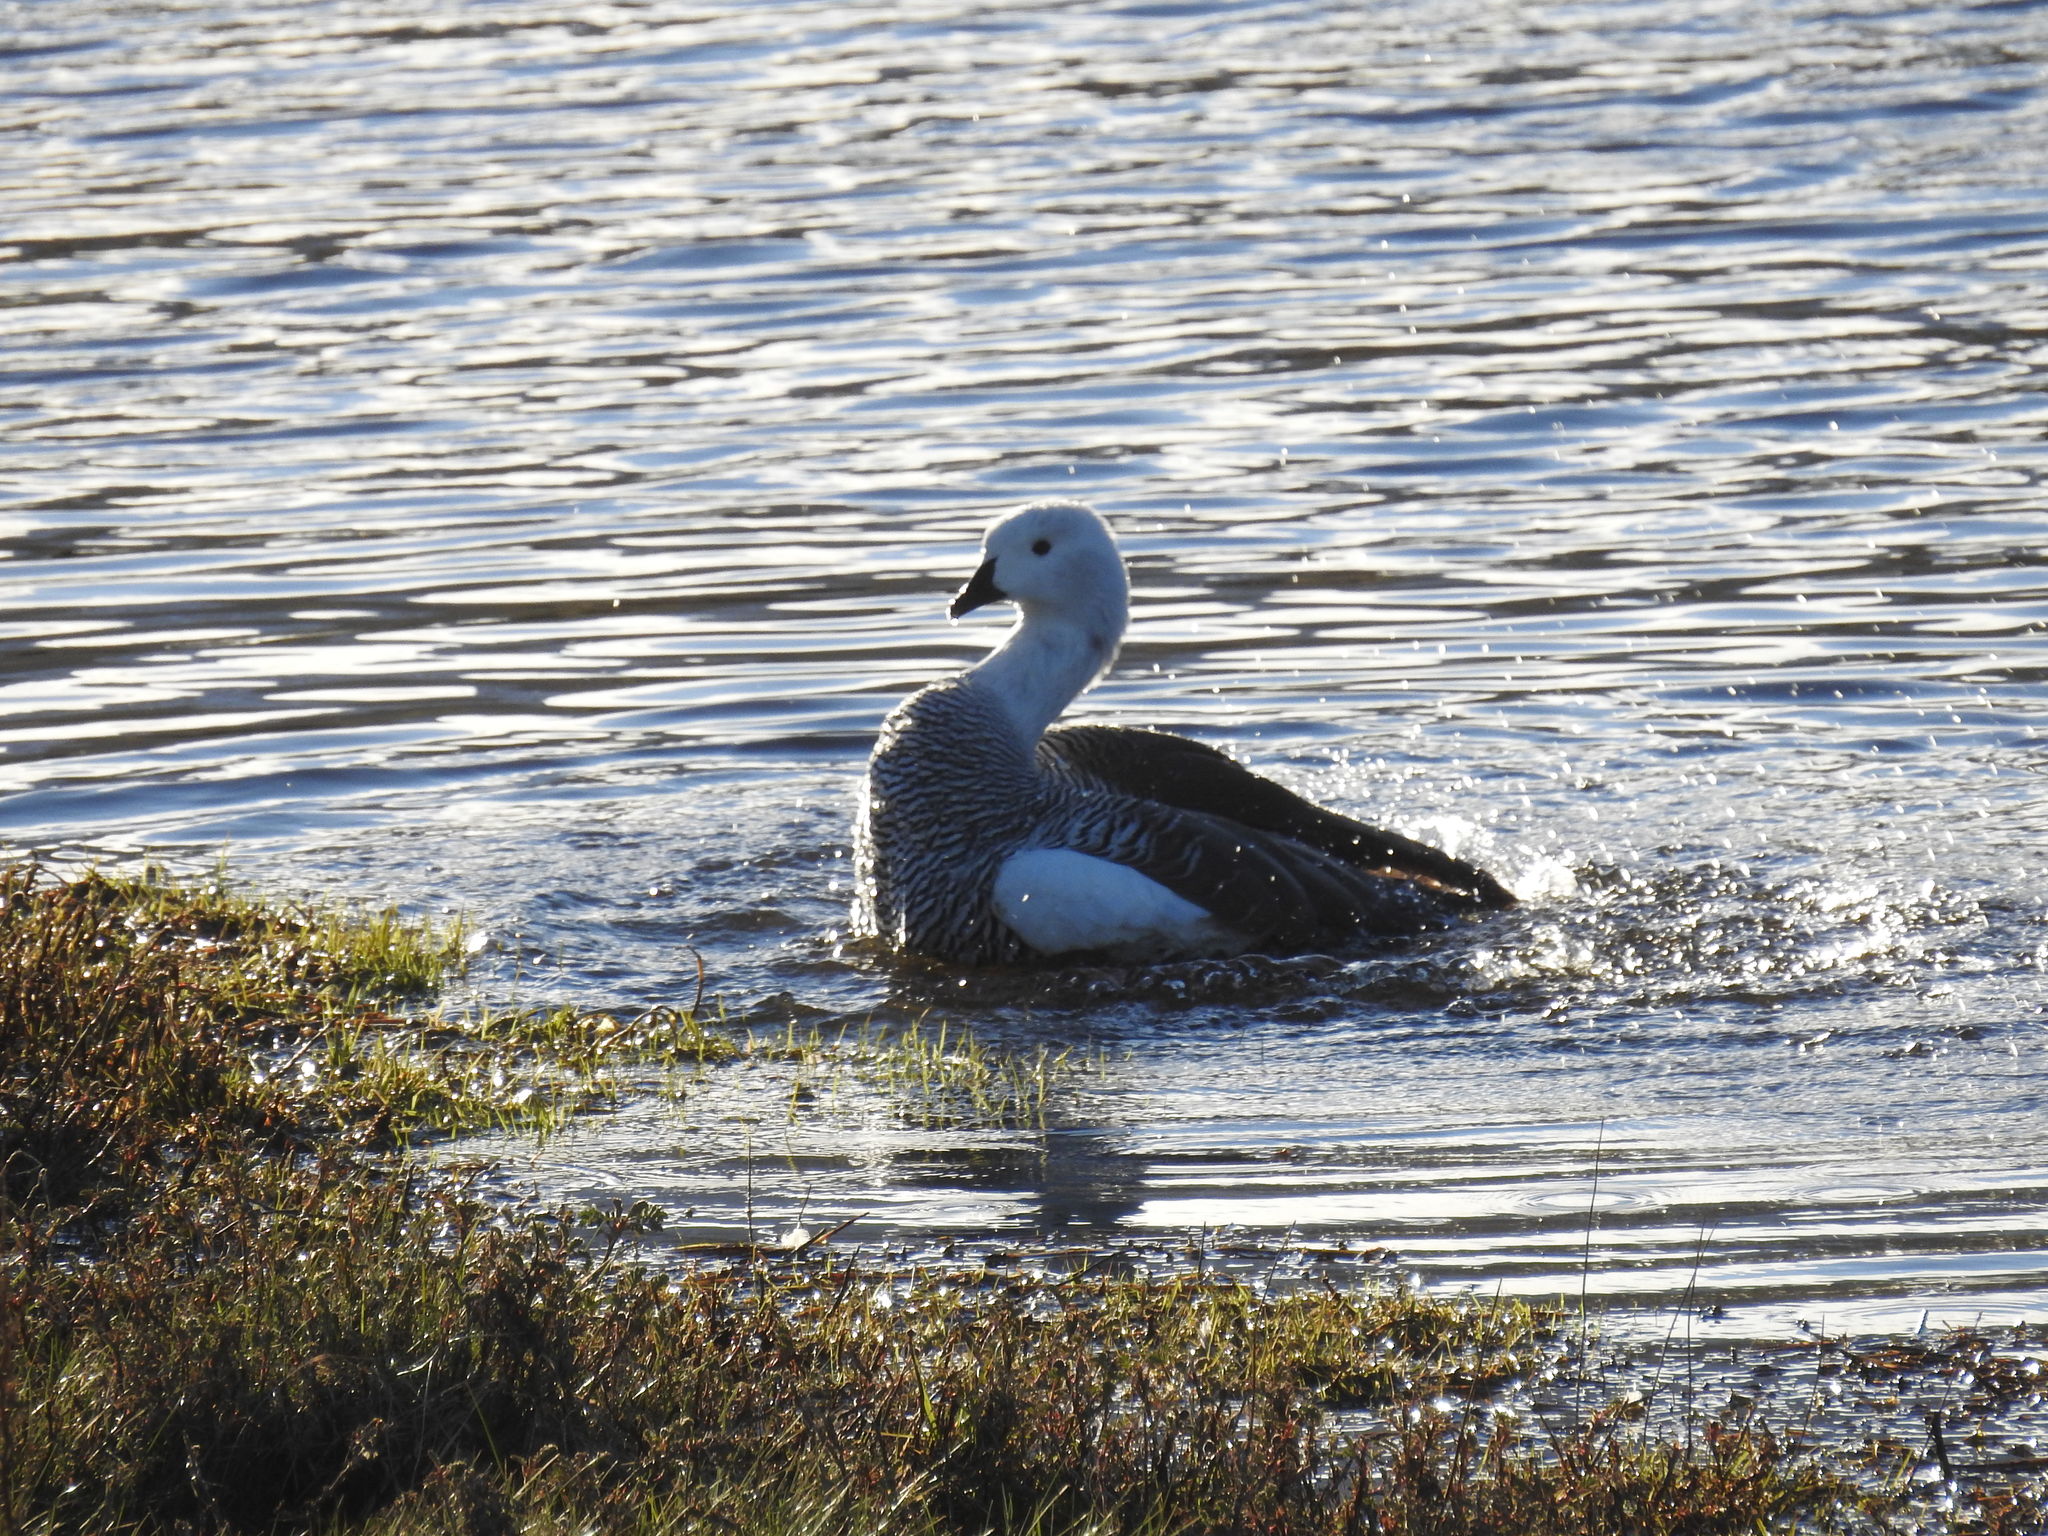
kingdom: Animalia
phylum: Chordata
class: Aves
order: Anseriformes
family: Anatidae
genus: Chloephaga
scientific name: Chloephaga picta
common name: Upland goose
